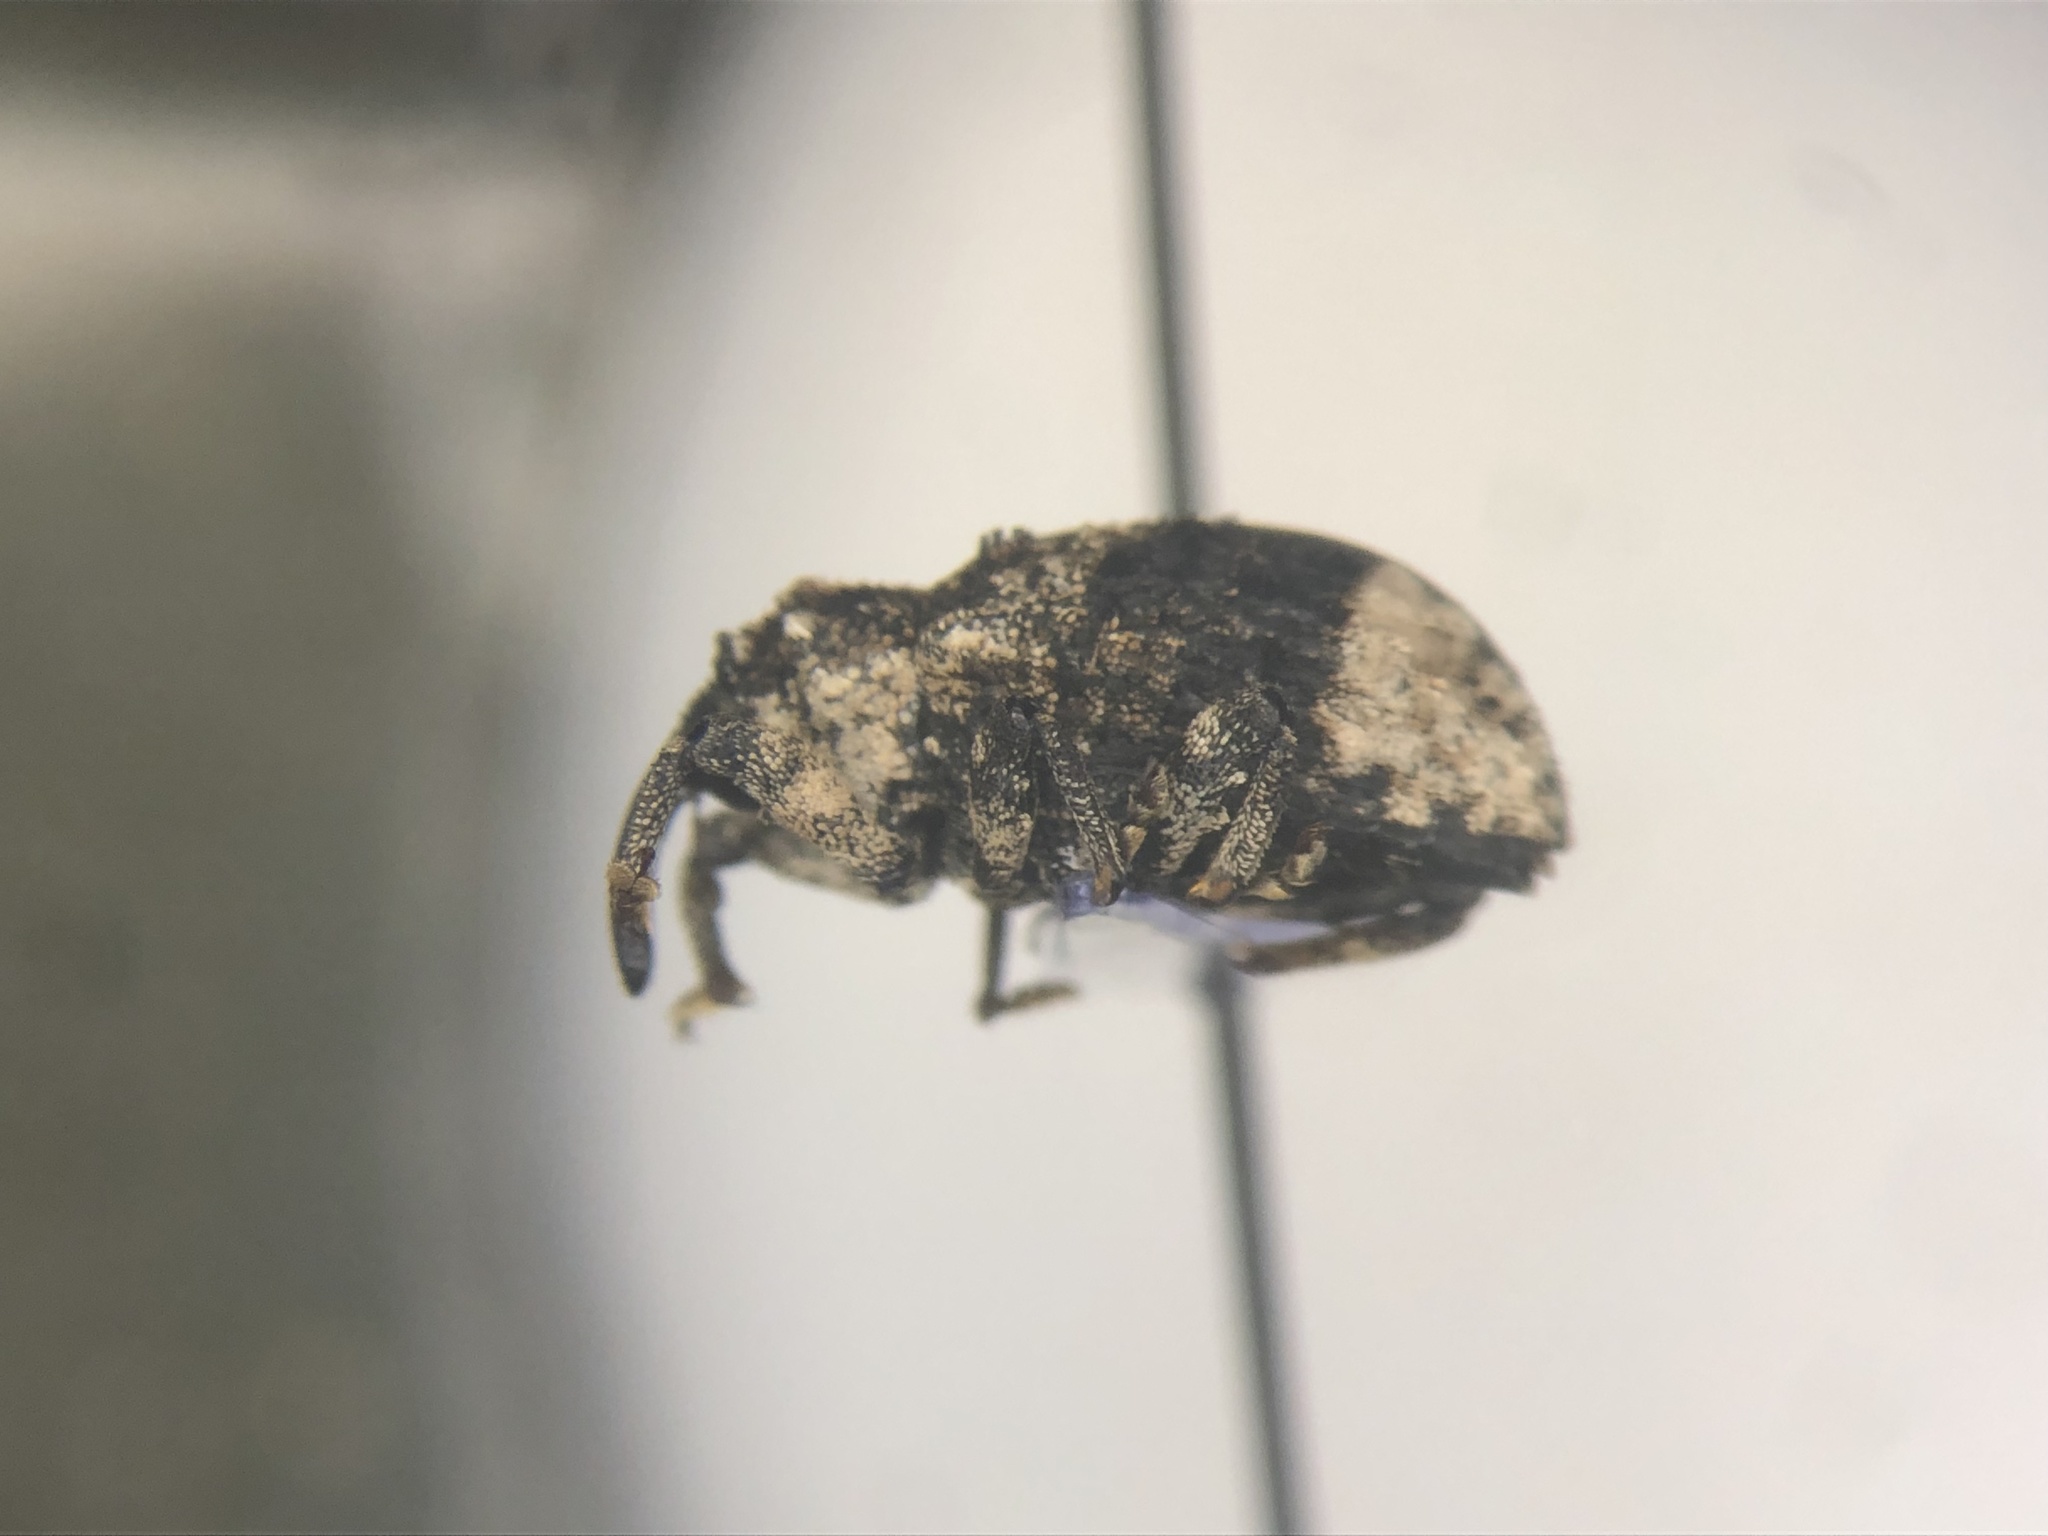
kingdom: Animalia
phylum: Arthropoda
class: Insecta
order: Coleoptera
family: Curculionidae
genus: Cryptorhynchus
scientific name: Cryptorhynchus lapathi
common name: Weevil
